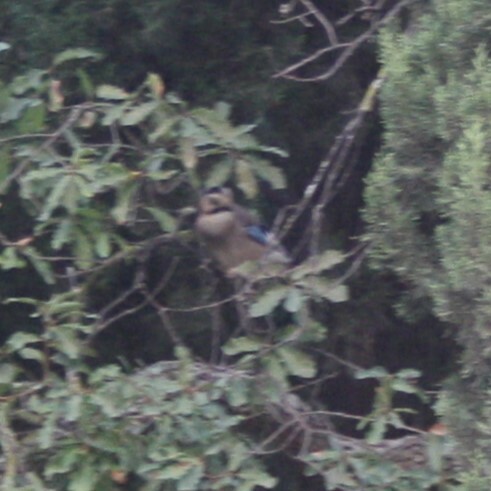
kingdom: Animalia
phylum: Chordata
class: Aves
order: Passeriformes
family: Corvidae
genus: Garrulus
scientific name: Garrulus glandarius
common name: Eurasian jay
